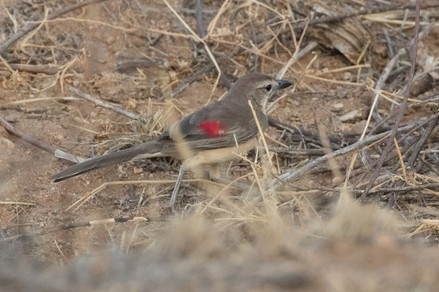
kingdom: Animalia
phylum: Chordata
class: Aves
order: Passeriformes
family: Malaconotidae
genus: Telophorus
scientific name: Telophorus cruentus
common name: Rosy-patched bushshrike
